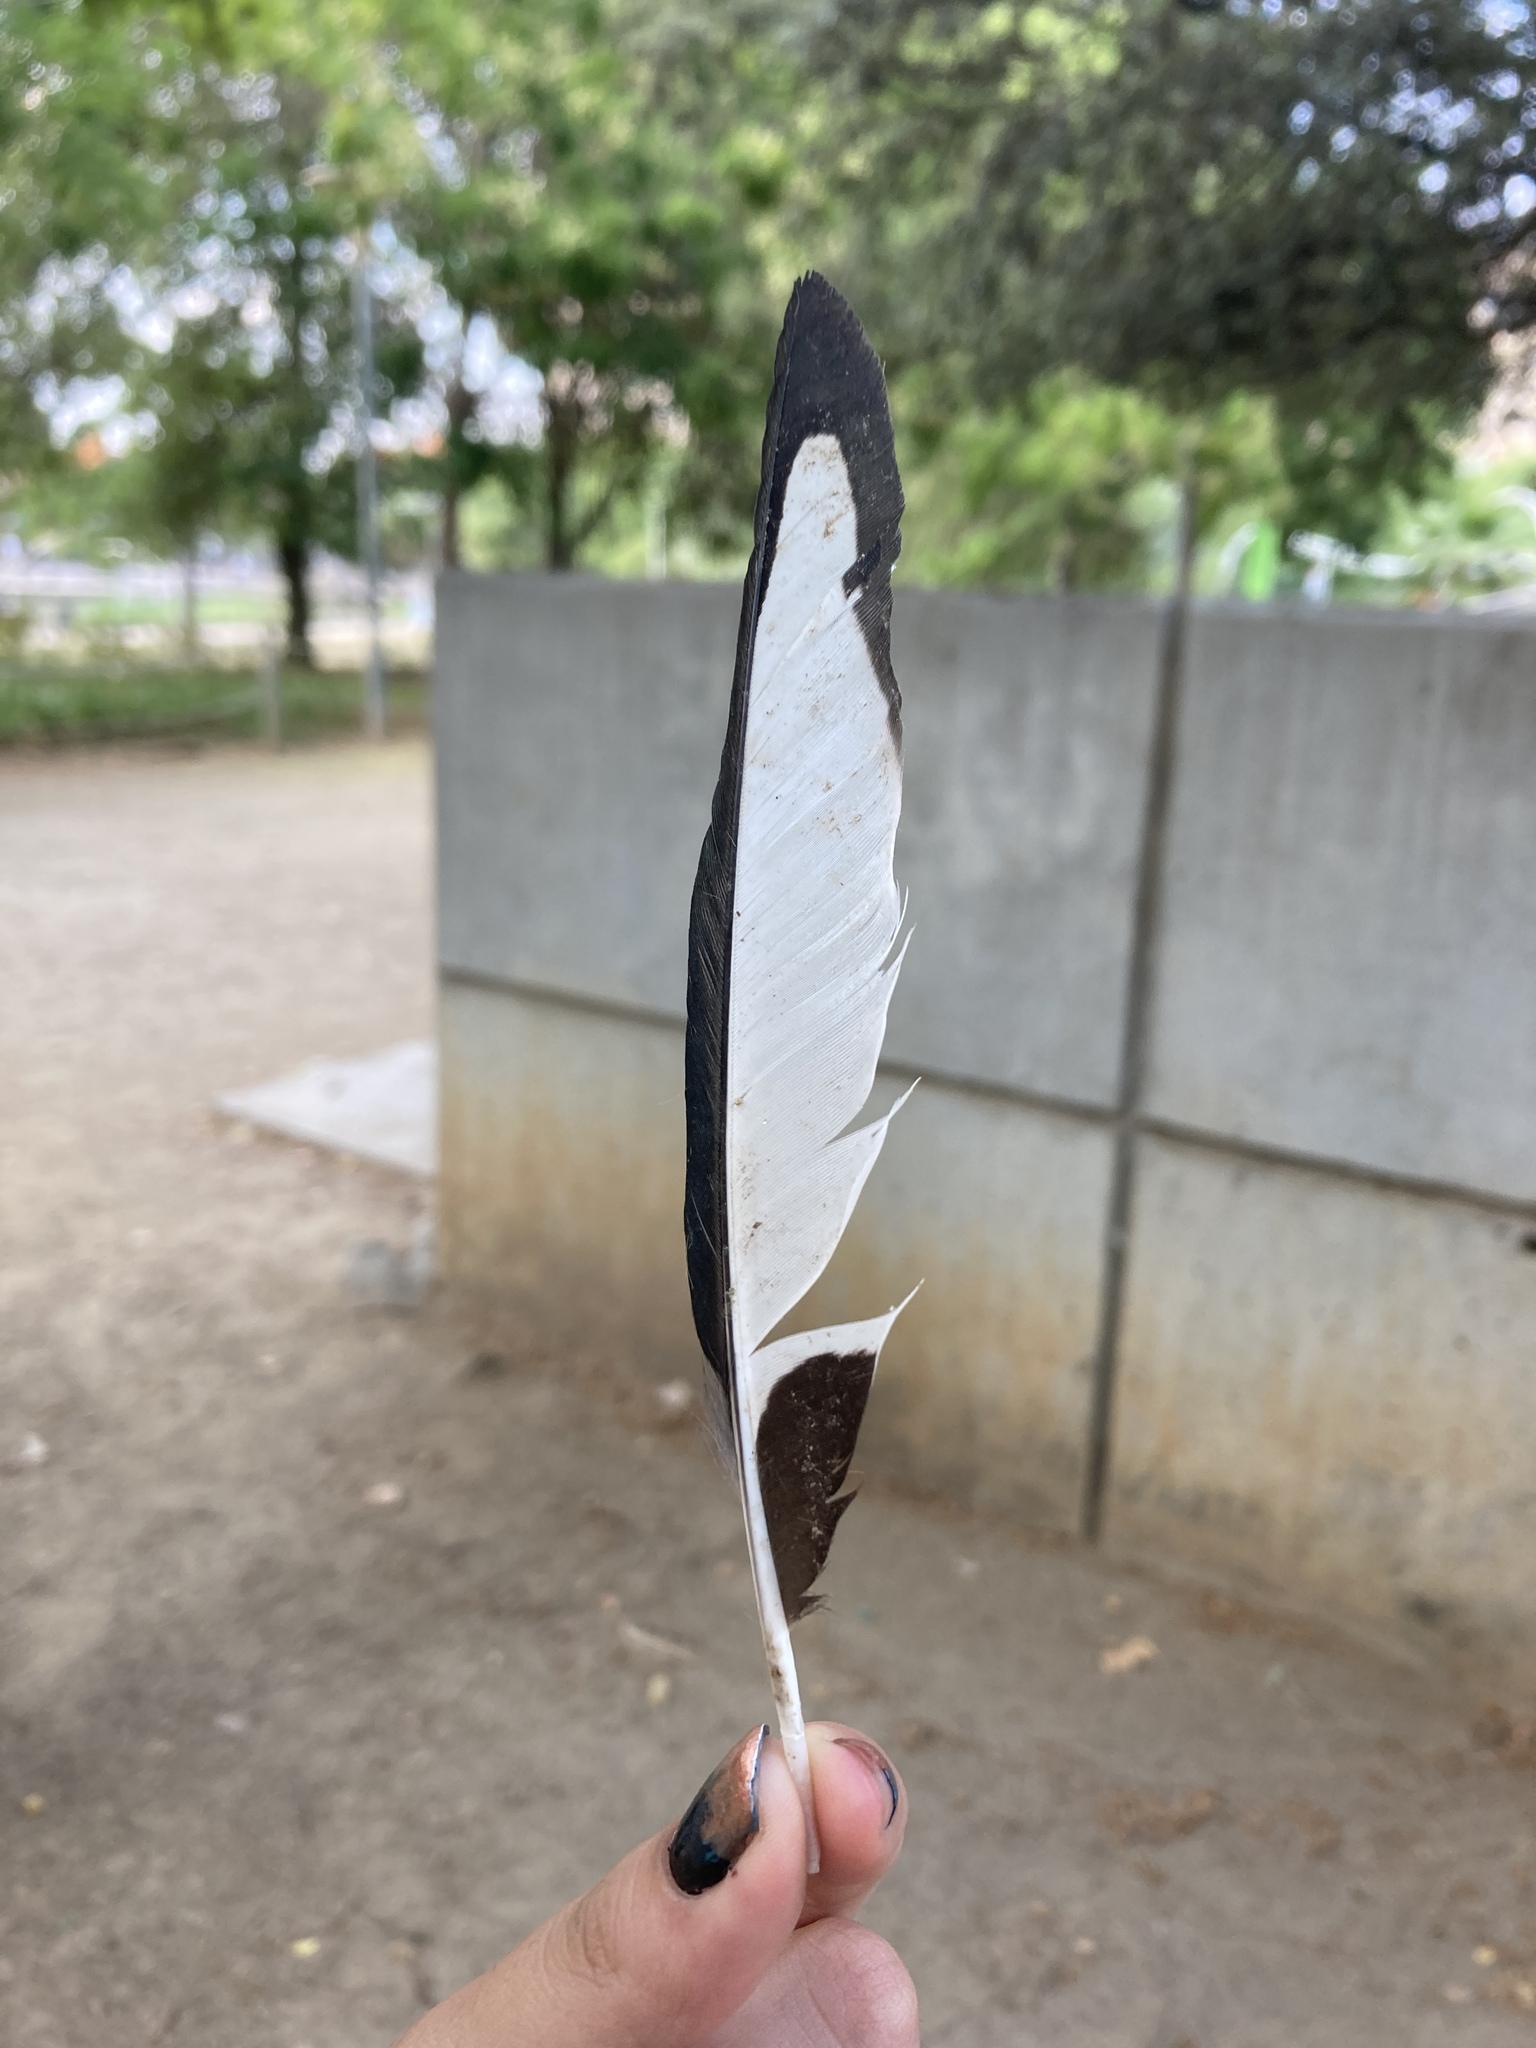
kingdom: Animalia
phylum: Chordata
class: Aves
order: Passeriformes
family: Corvidae
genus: Pica
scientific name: Pica pica
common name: Eurasian magpie
